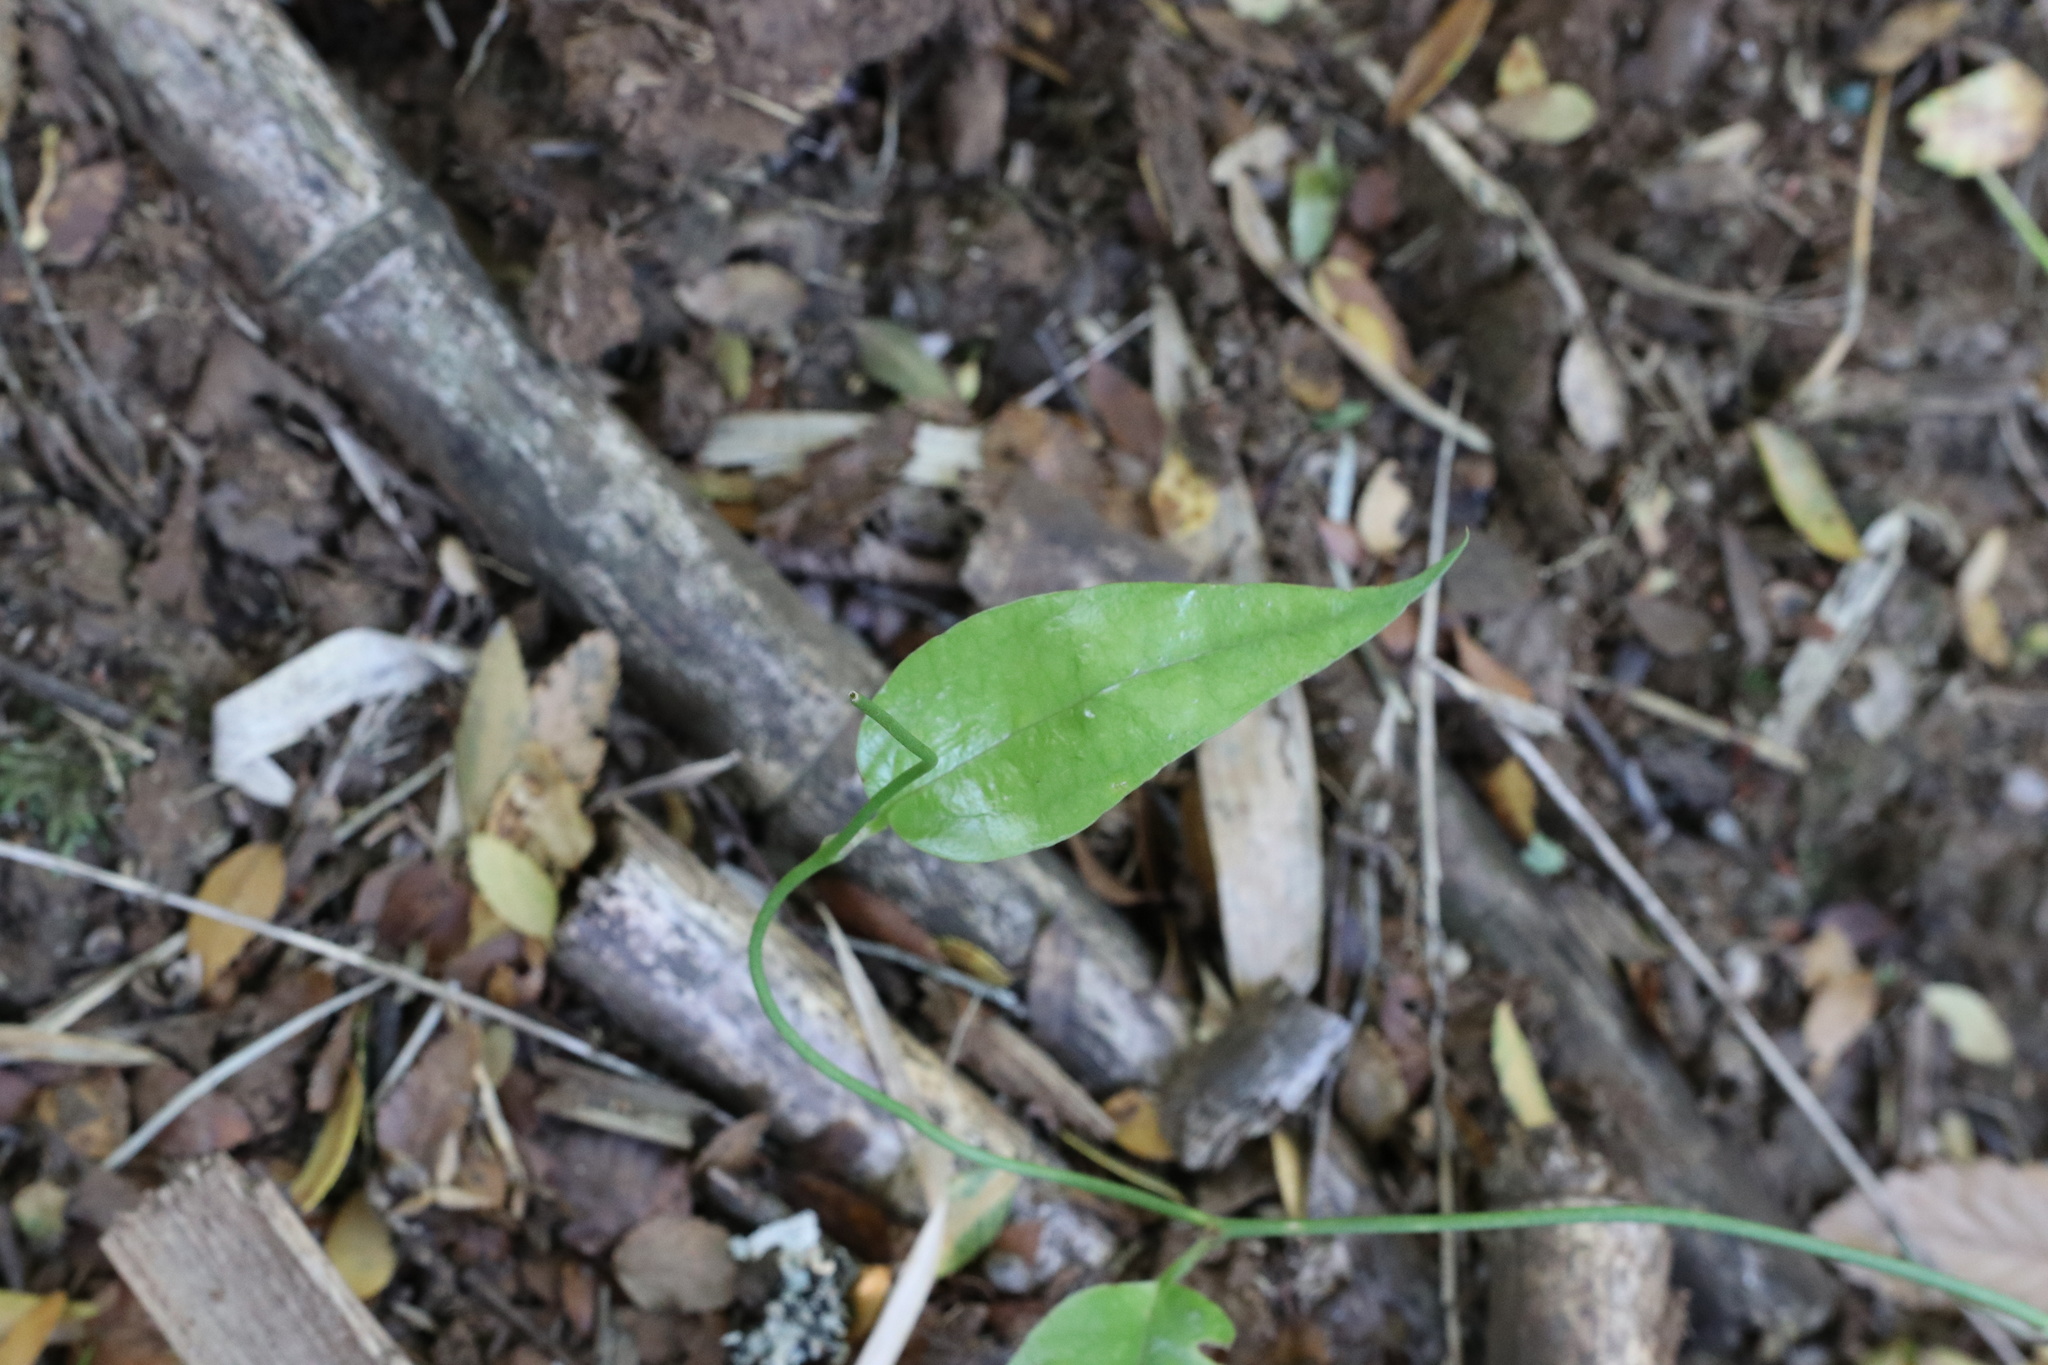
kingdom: Plantae
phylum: Tracheophyta
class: Liliopsida
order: Liliales
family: Philesiaceae
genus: Lapageria
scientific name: Lapageria rosea
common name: Chilean-bellflower
